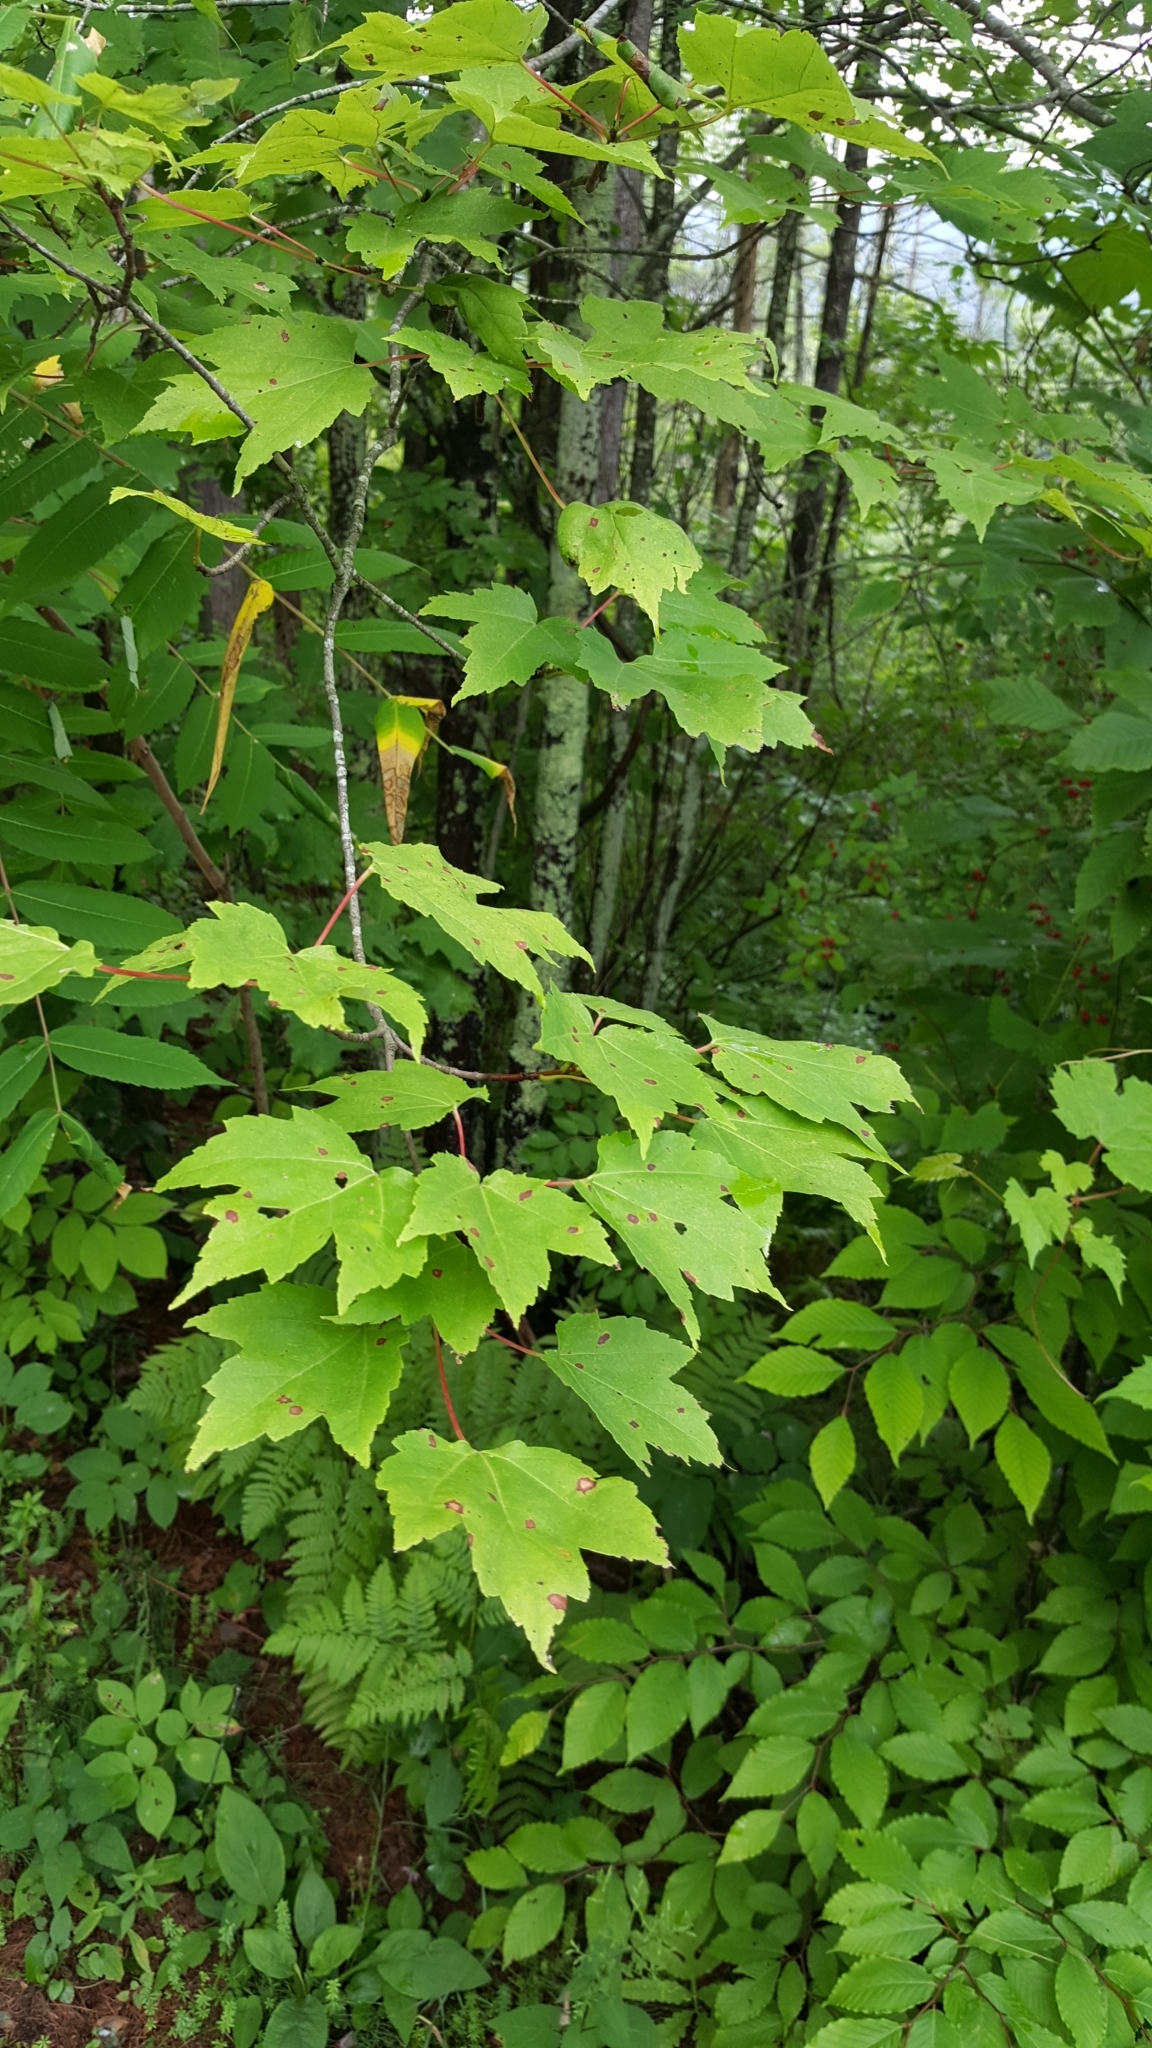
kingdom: Plantae
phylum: Tracheophyta
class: Magnoliopsida
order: Sapindales
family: Sapindaceae
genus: Acer
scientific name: Acer rubrum
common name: Red maple
